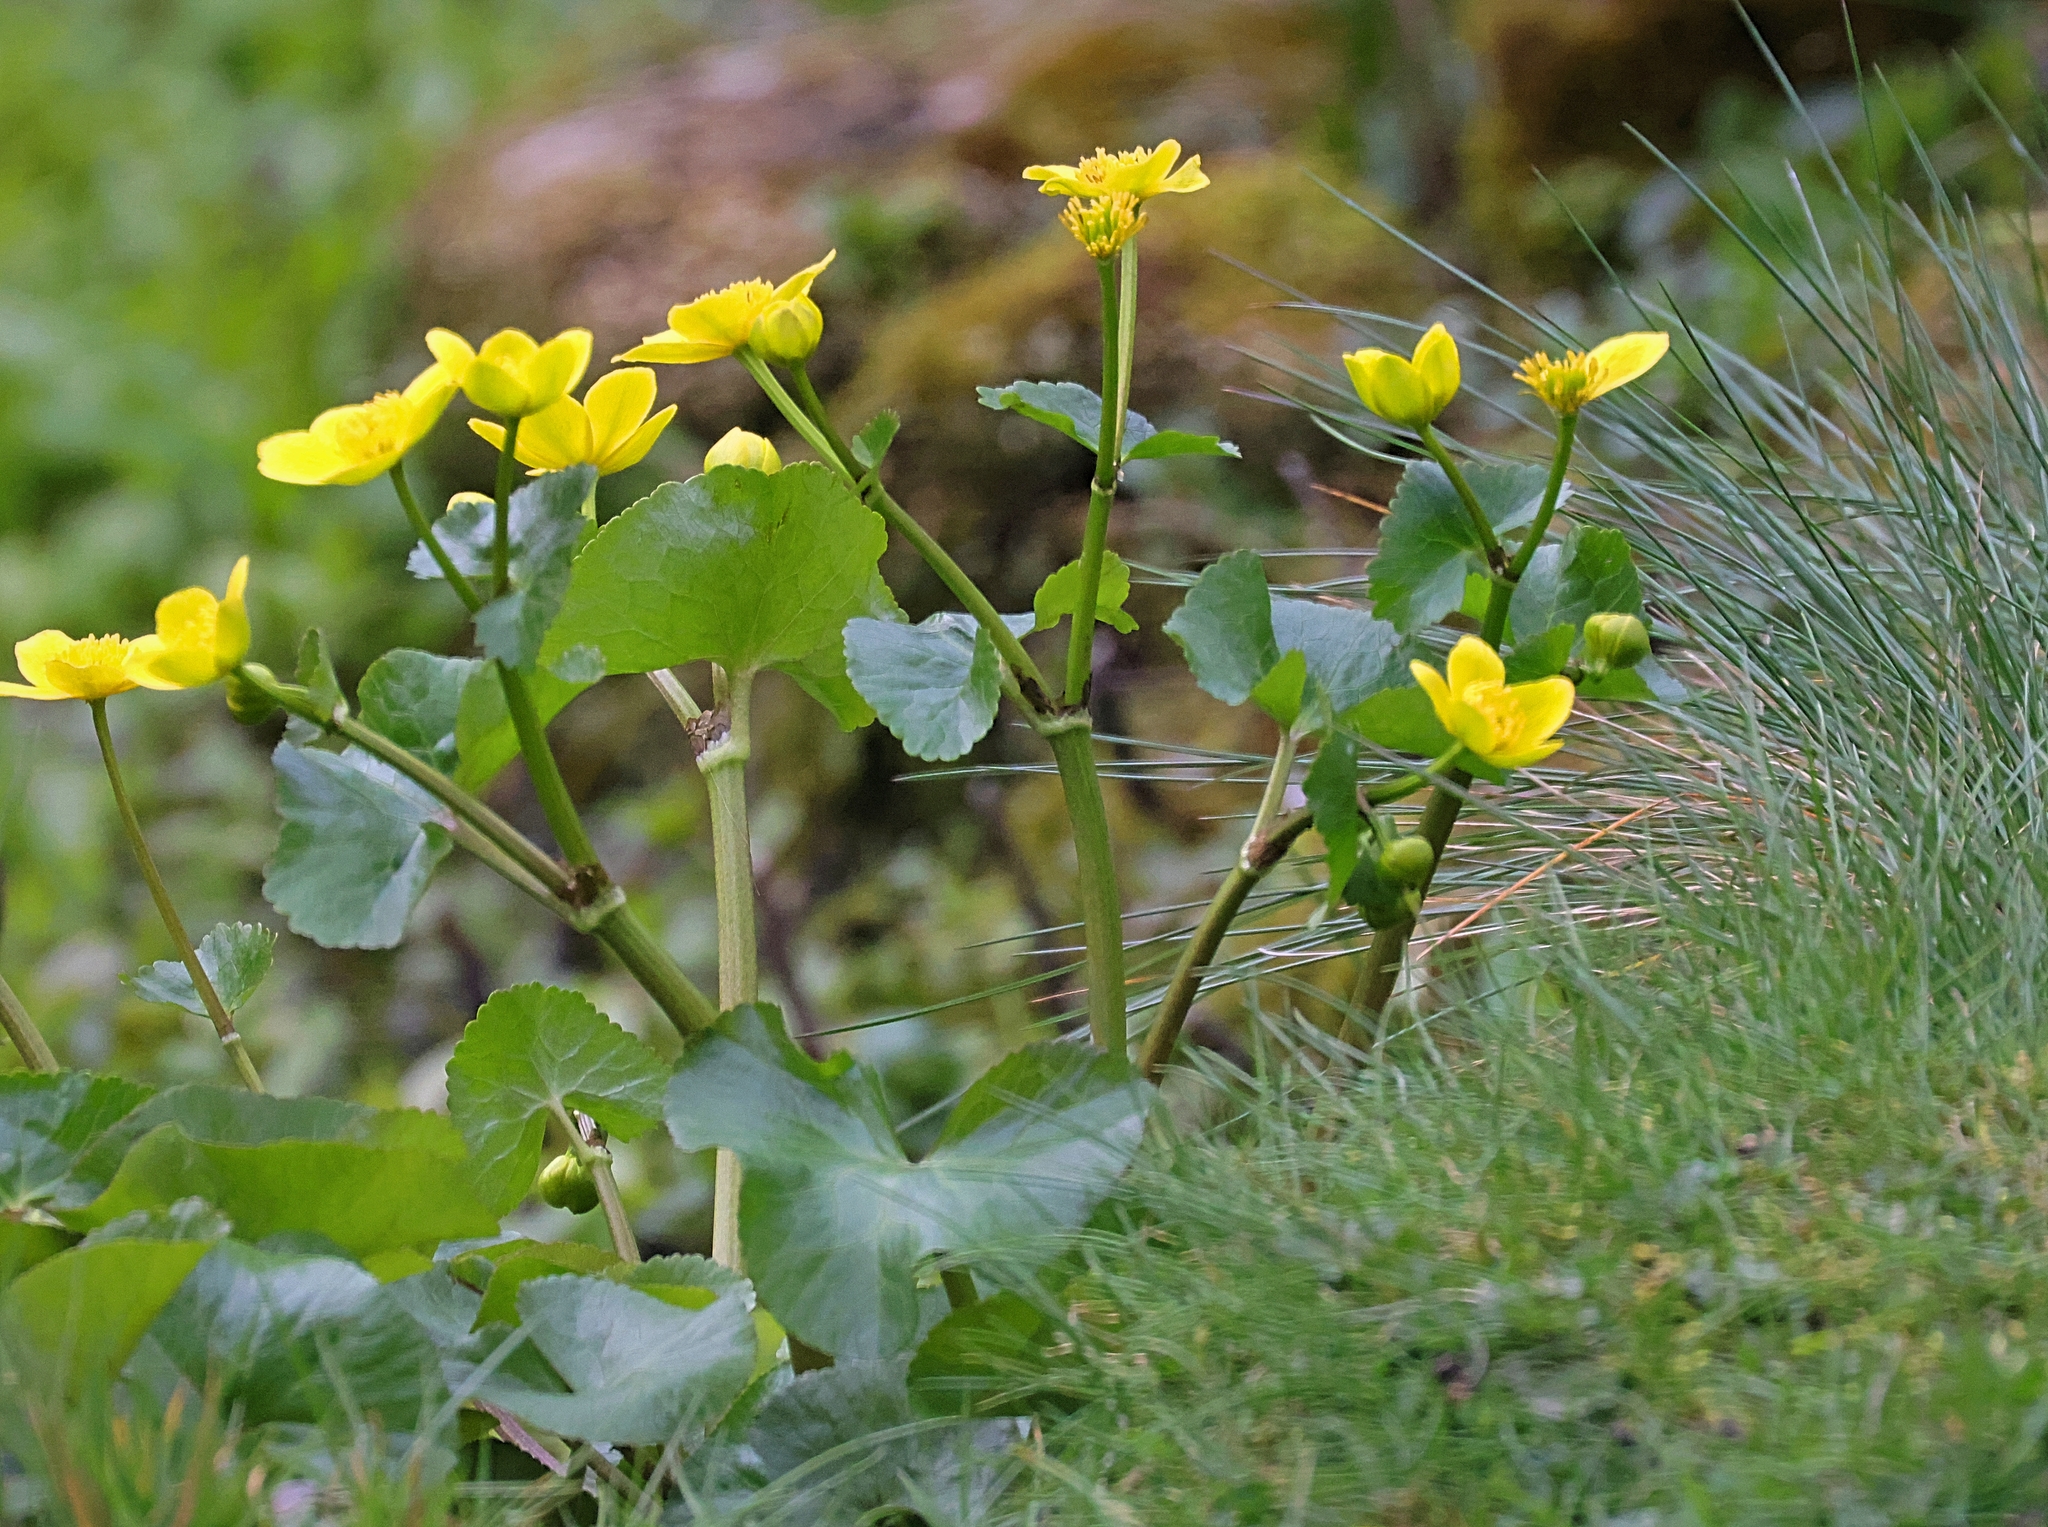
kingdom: Plantae
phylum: Tracheophyta
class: Magnoliopsida
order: Ranunculales
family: Ranunculaceae
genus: Caltha
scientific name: Caltha palustris
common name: Marsh marigold
